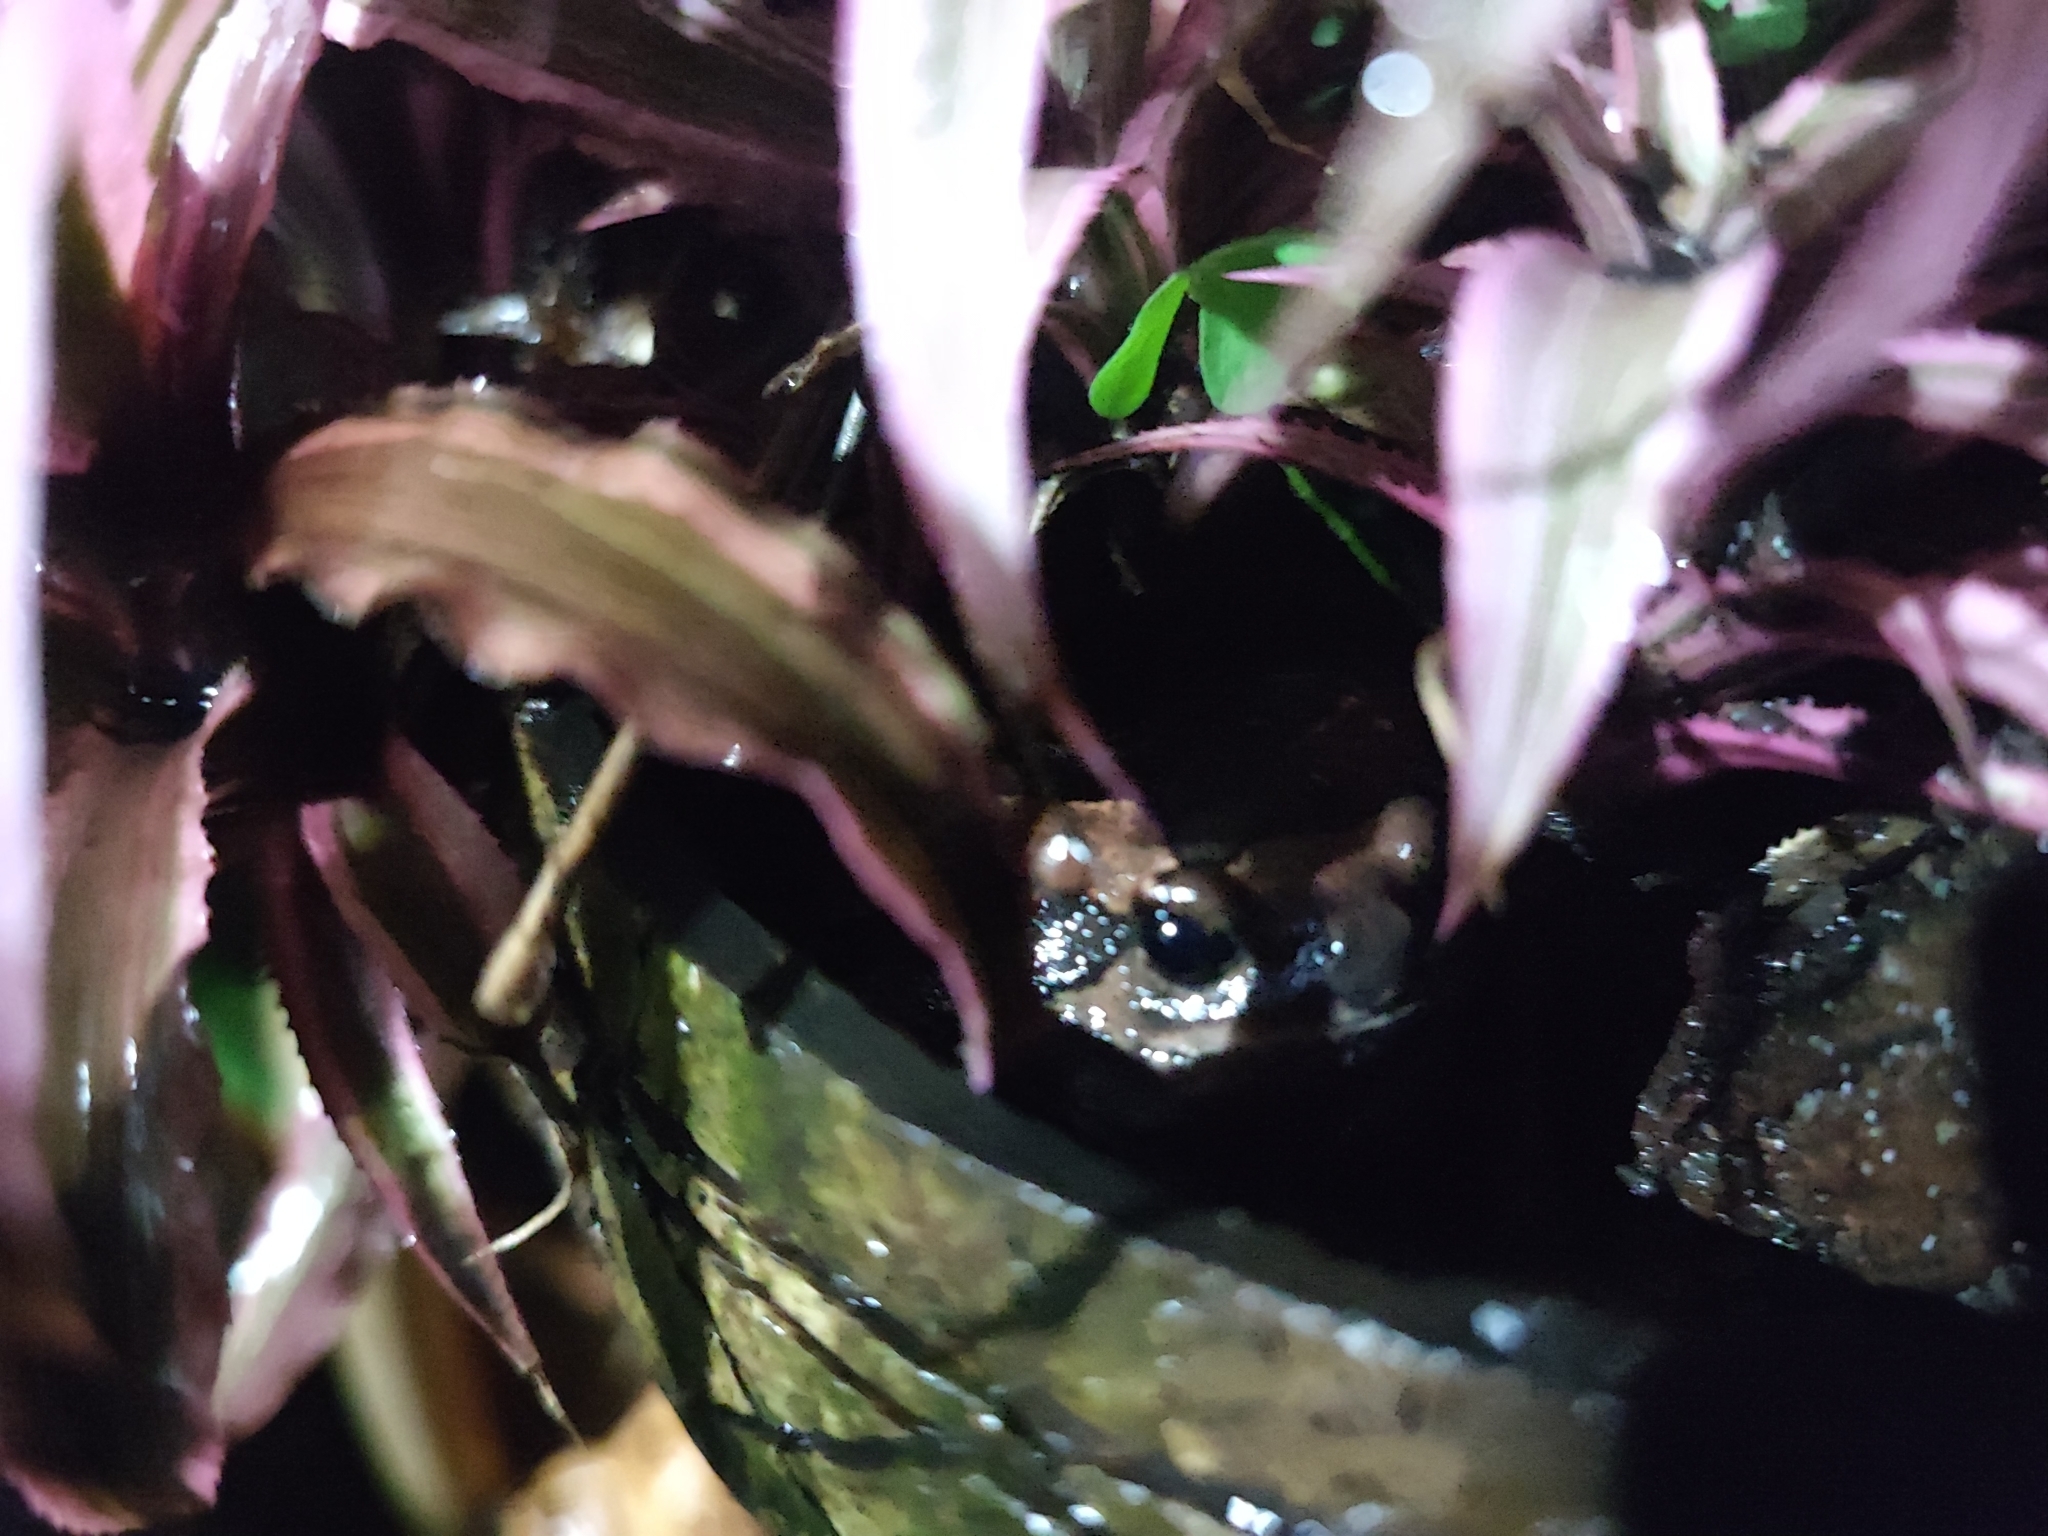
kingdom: Animalia
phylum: Chordata
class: Amphibia
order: Anura
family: Microhylidae
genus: Kaloula
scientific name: Kaloula pulchra
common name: Common,banded bullfrog
